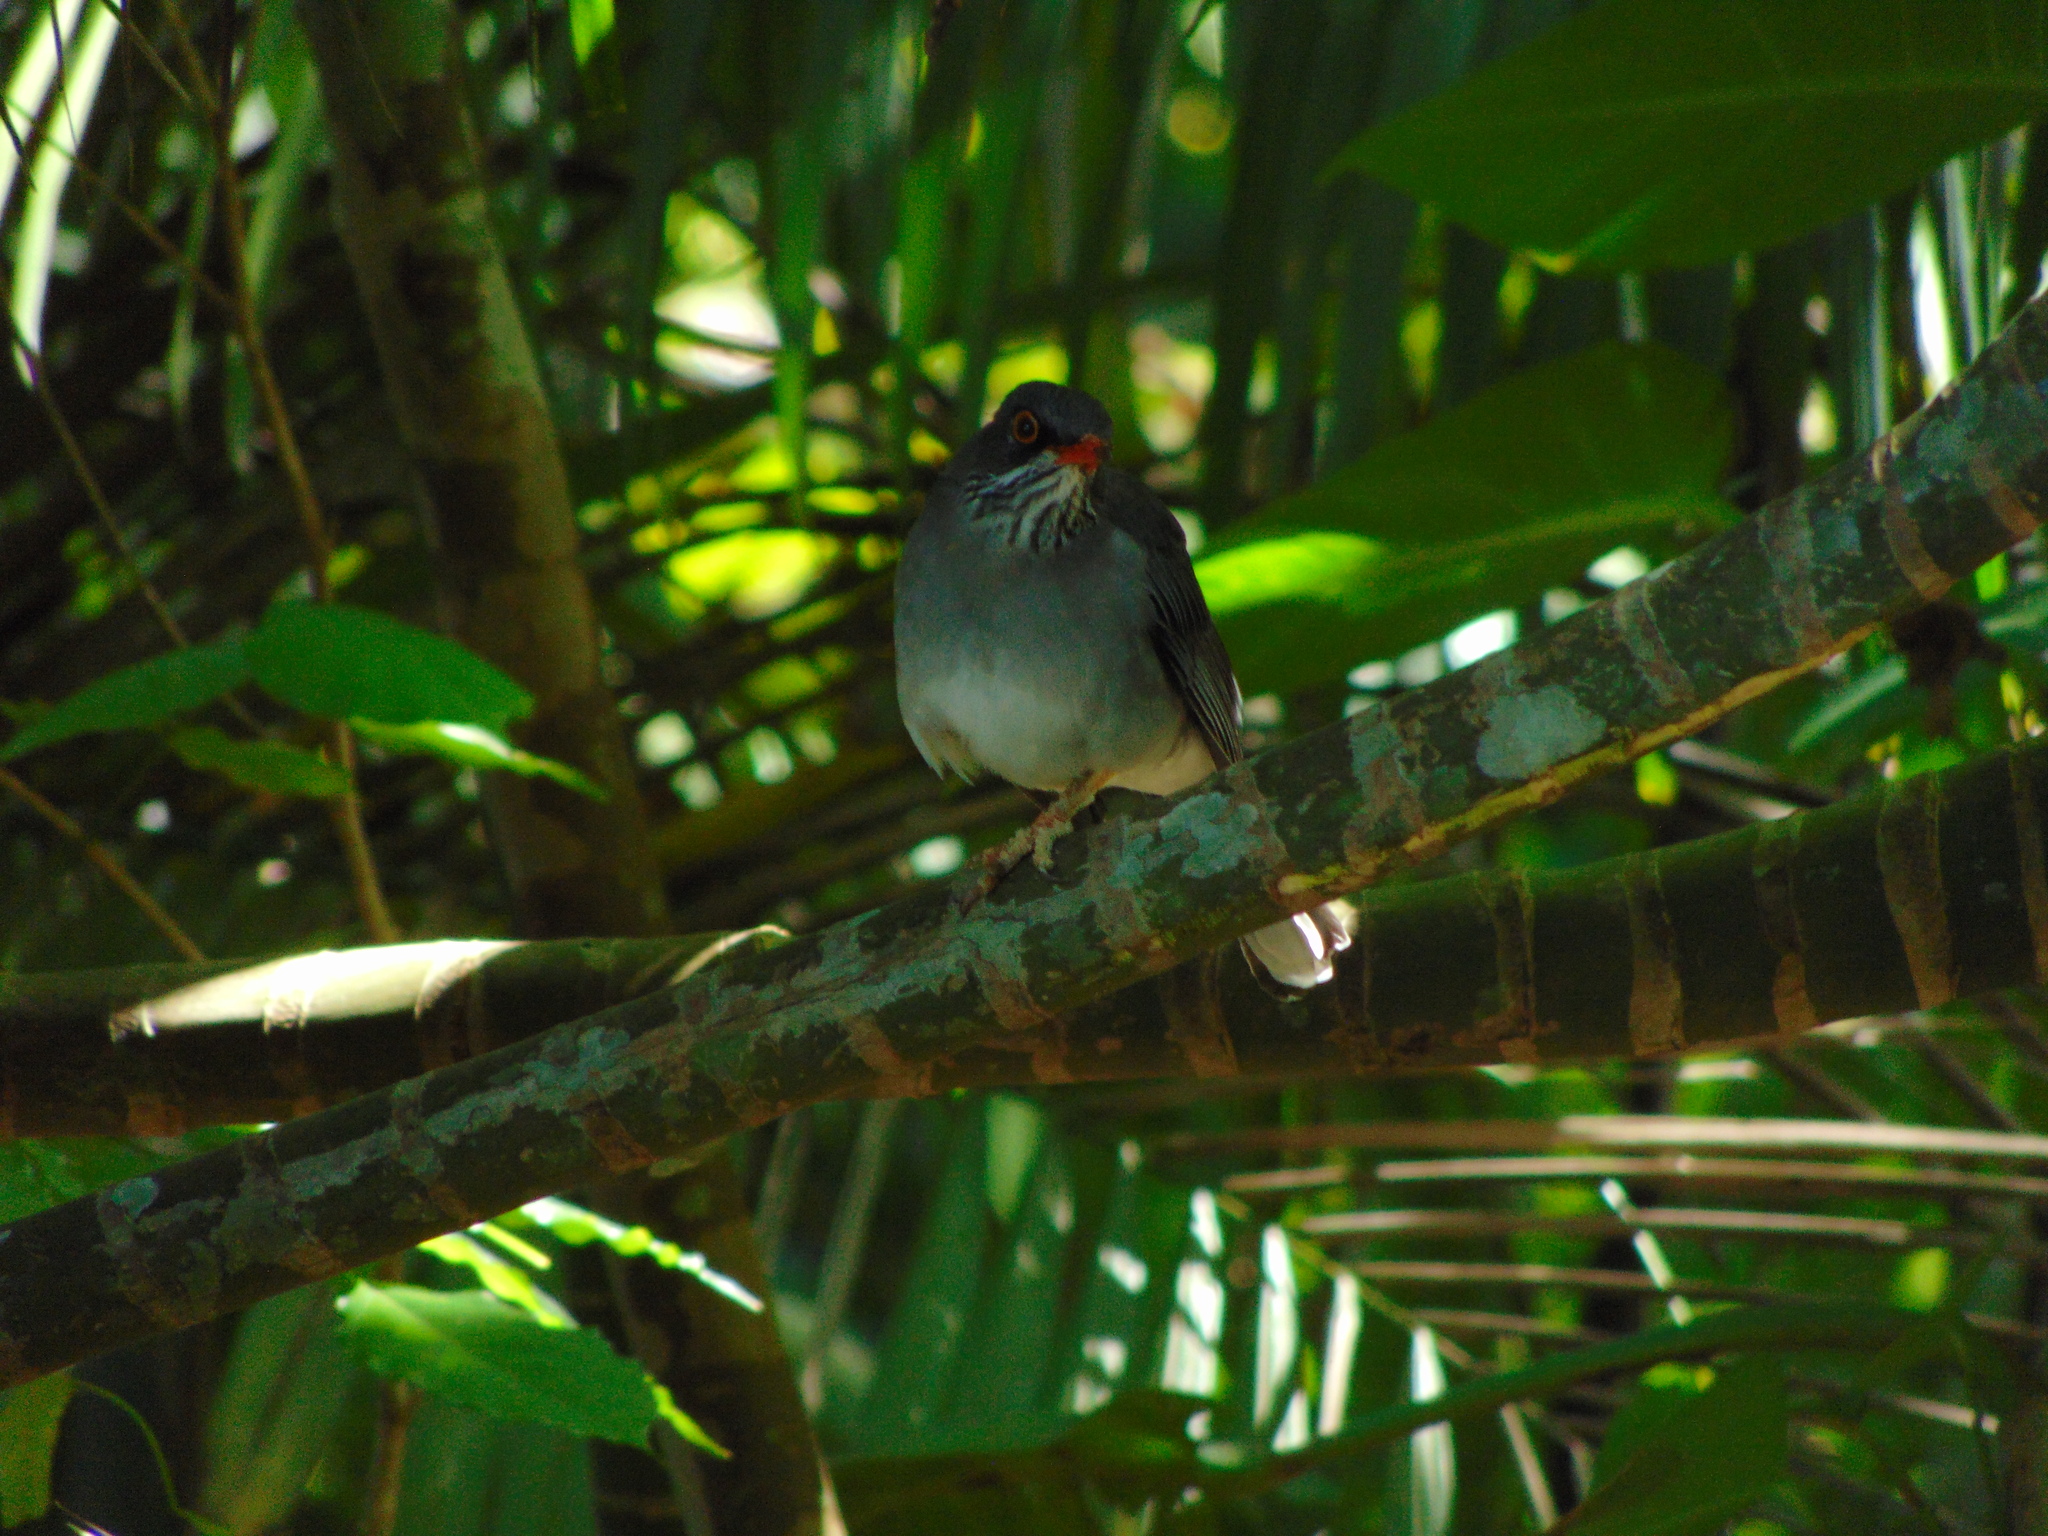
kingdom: Animalia
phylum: Chordata
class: Aves
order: Passeriformes
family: Turdidae
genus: Turdus
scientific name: Turdus plumbeus
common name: Red-legged thrush
